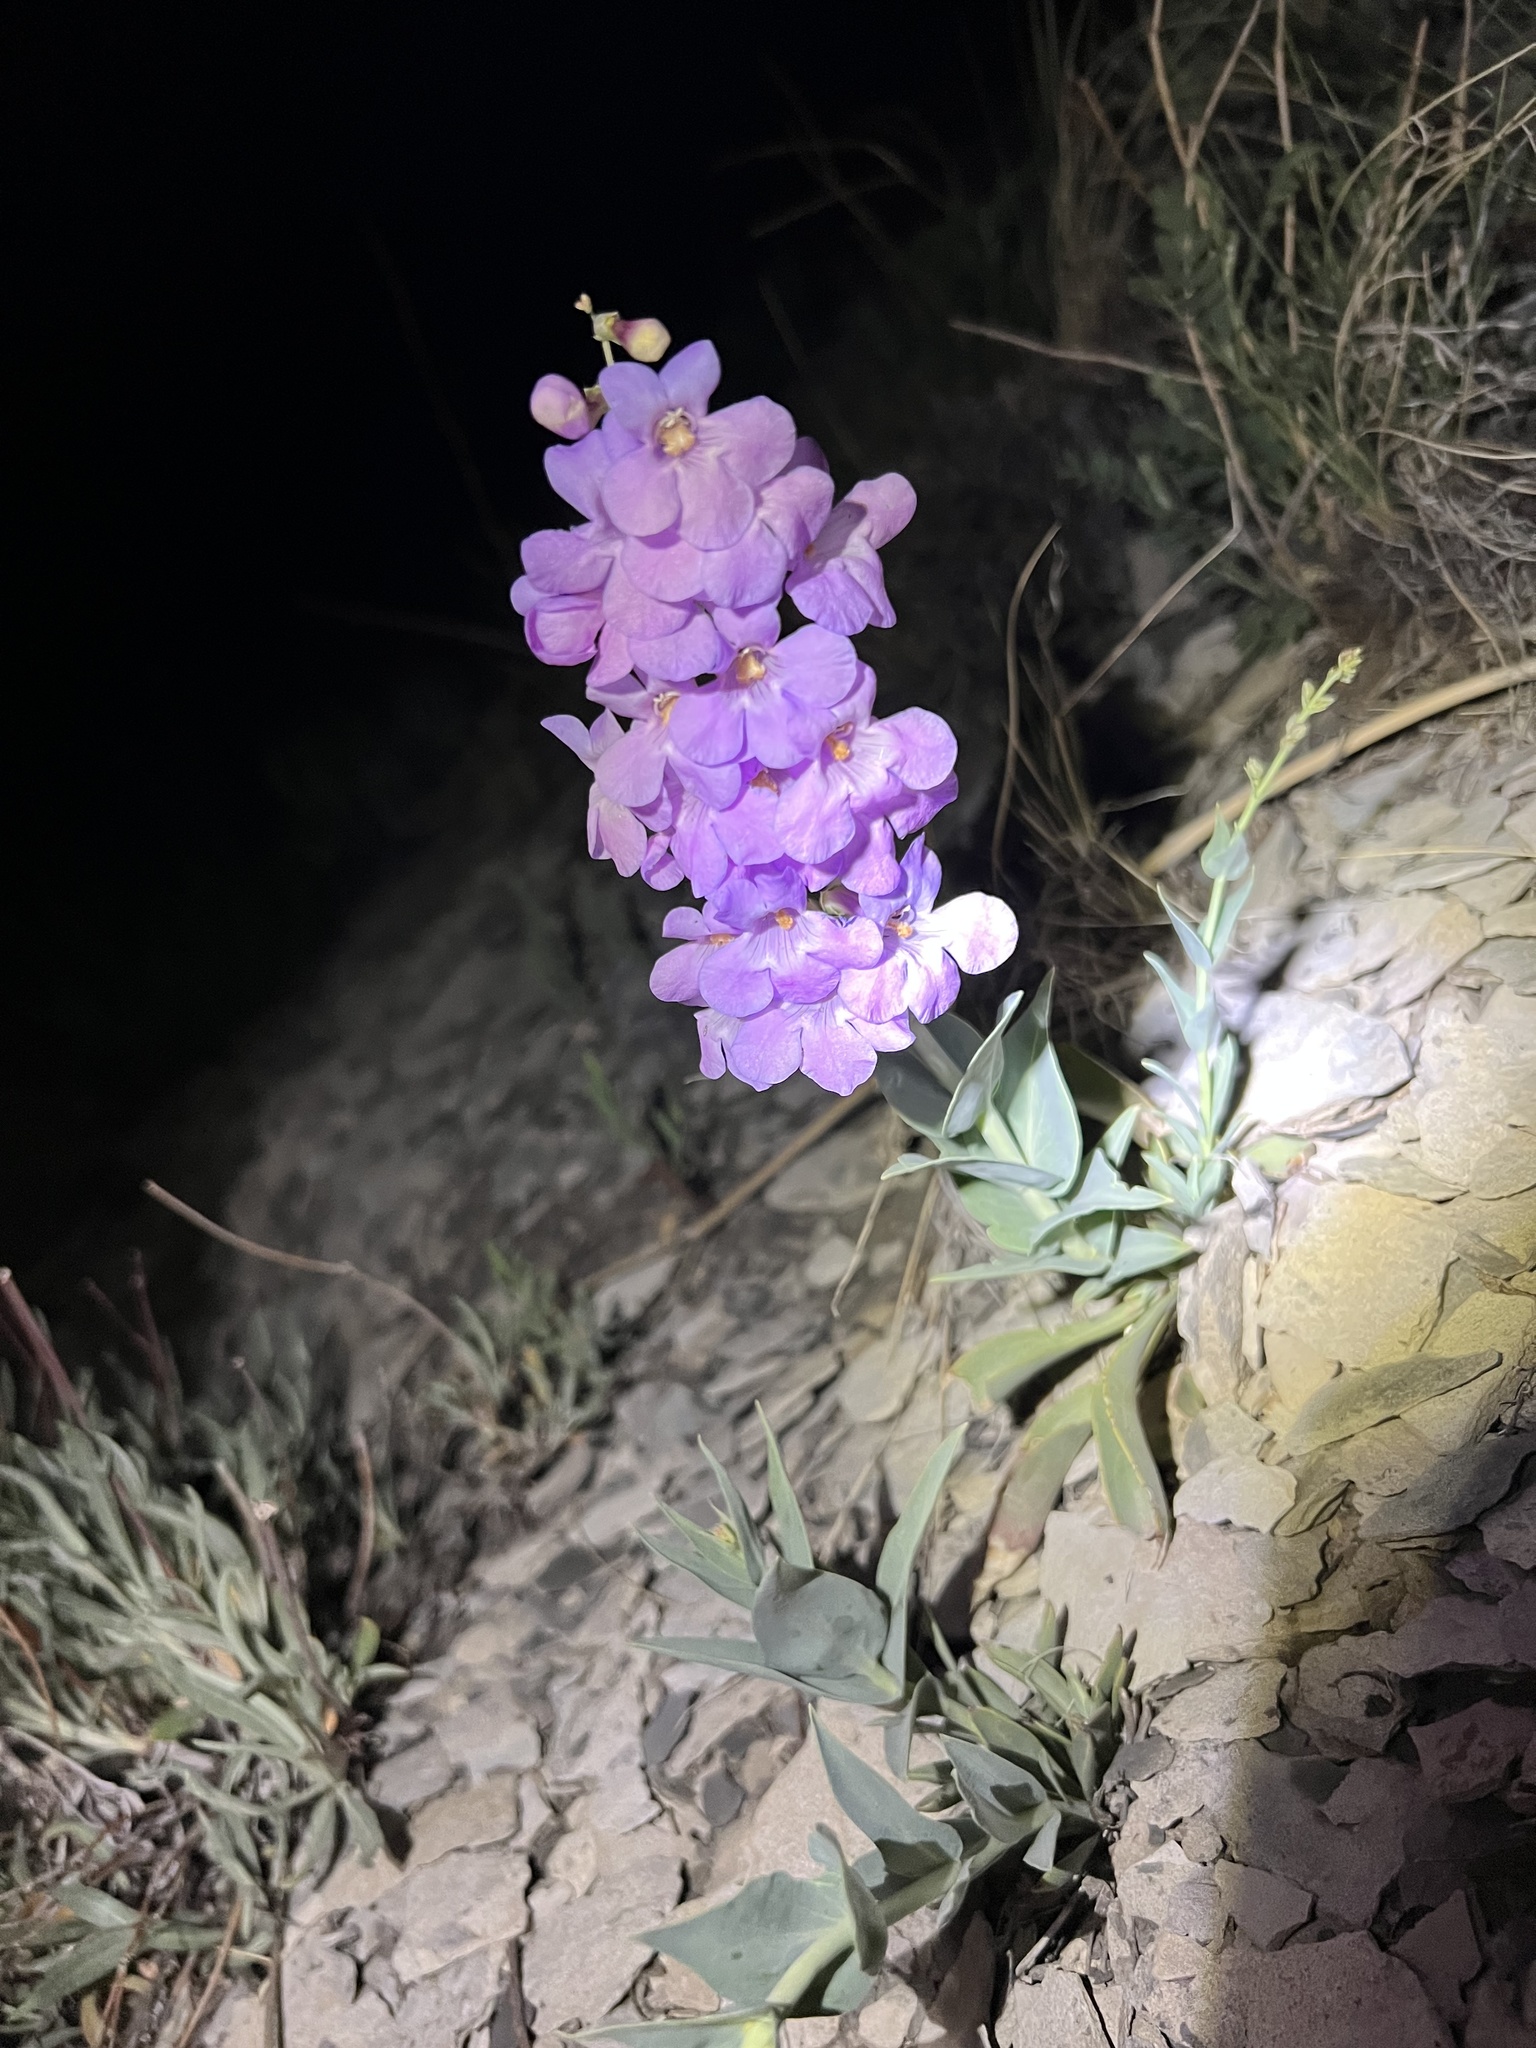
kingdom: Plantae
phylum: Tracheophyta
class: Magnoliopsida
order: Lamiales
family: Plantaginaceae
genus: Penstemon
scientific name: Penstemon secundiflorus
